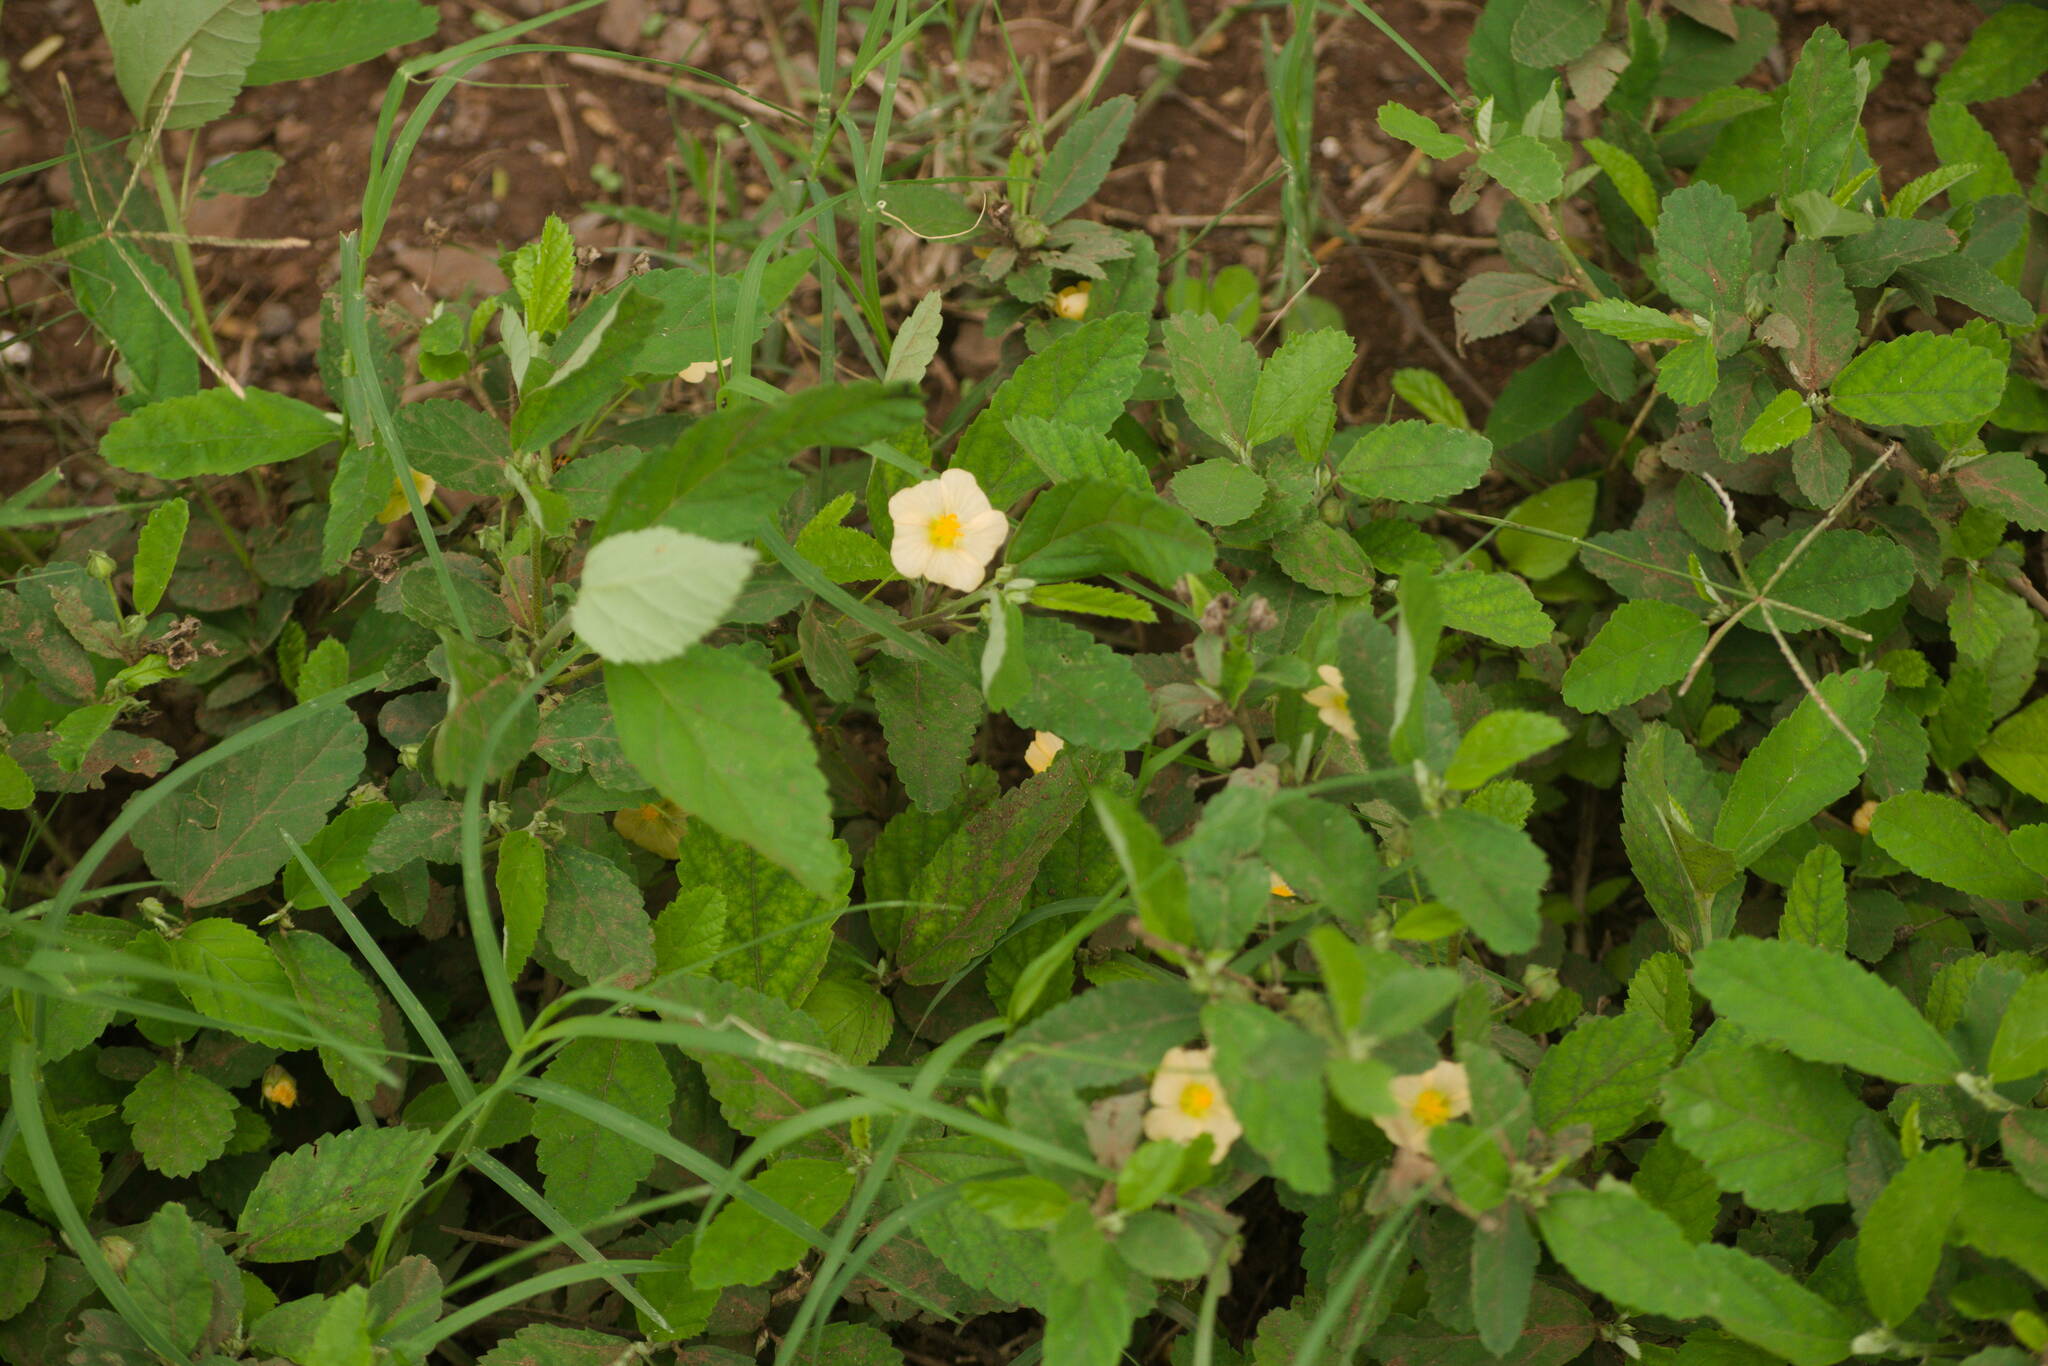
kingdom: Plantae
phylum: Tracheophyta
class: Magnoliopsida
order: Malvales
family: Malvaceae
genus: Sida
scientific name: Sida rhombifolia
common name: Queensland-hemp
